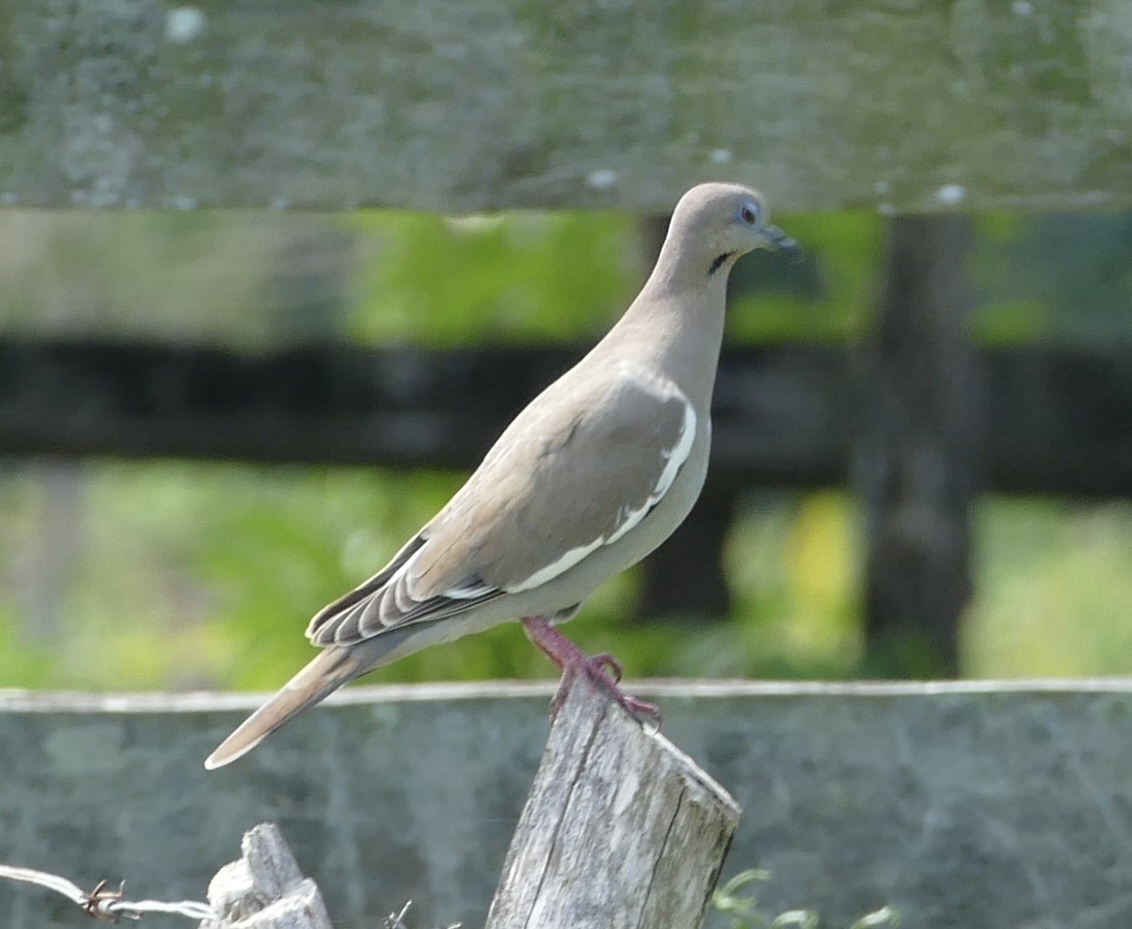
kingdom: Animalia
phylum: Chordata
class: Aves
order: Columbiformes
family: Columbidae
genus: Zenaida
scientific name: Zenaida asiatica
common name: White-winged dove
